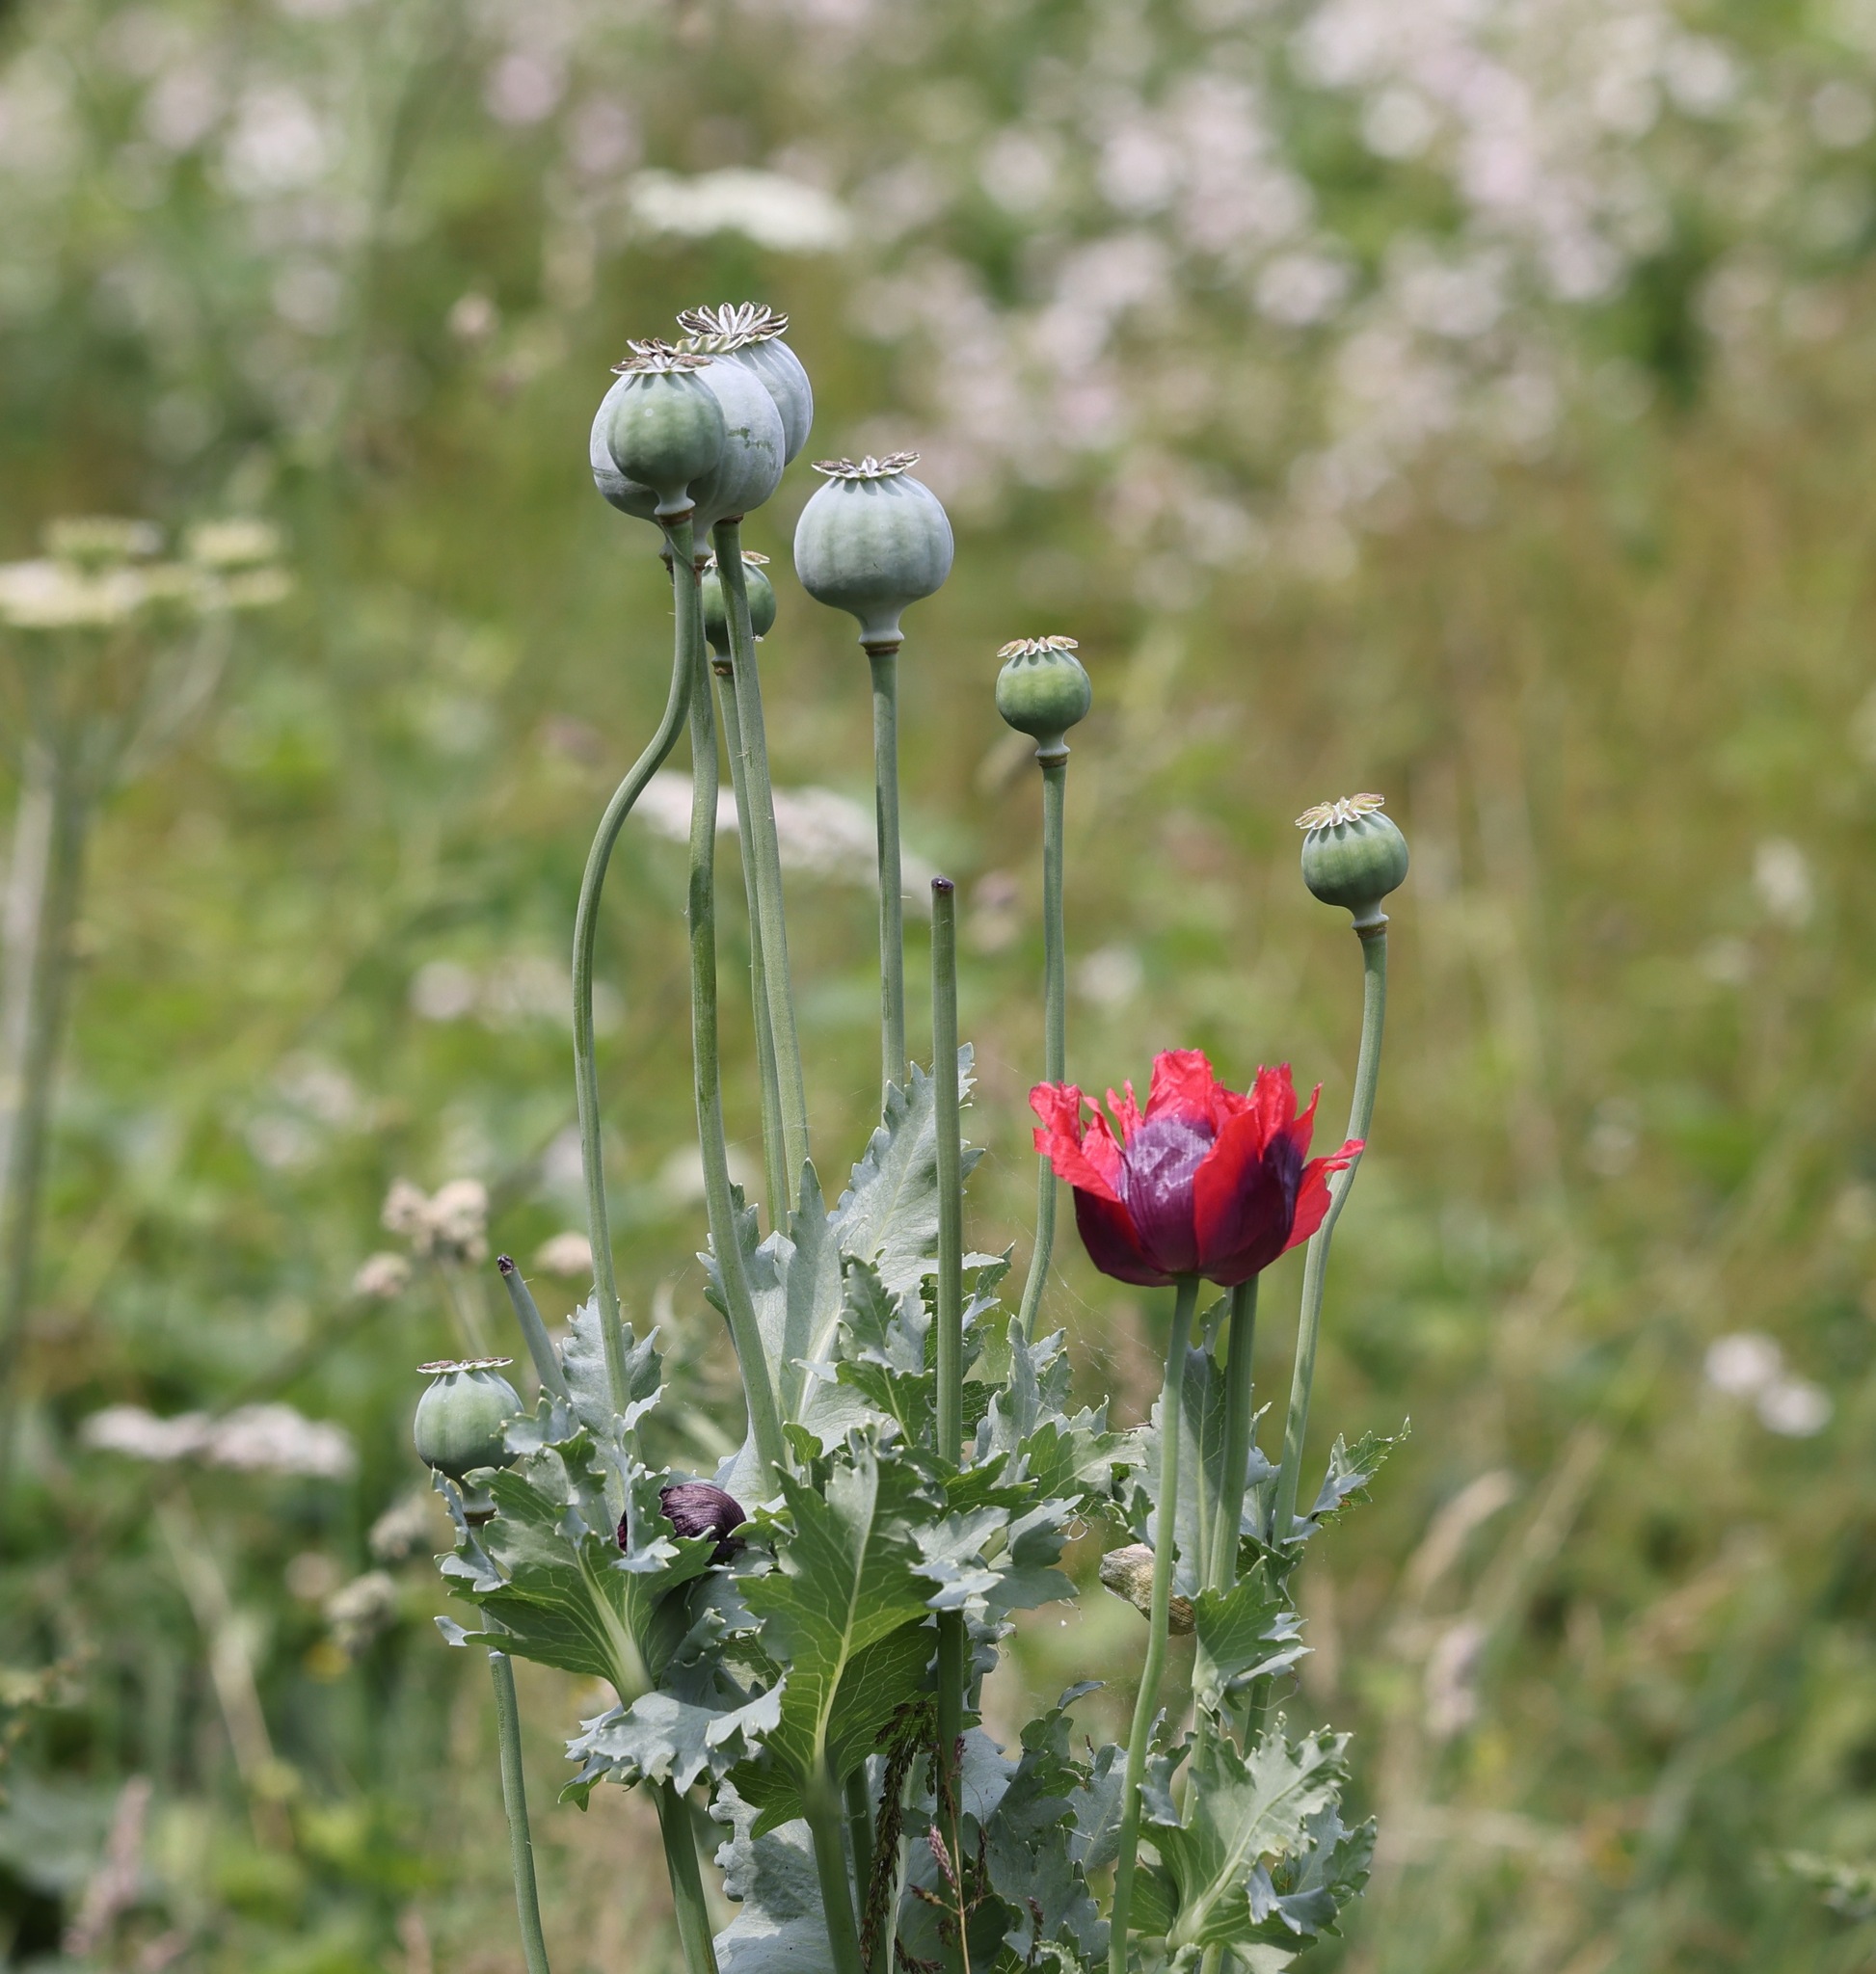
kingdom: Plantae
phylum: Tracheophyta
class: Magnoliopsida
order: Ranunculales
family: Papaveraceae
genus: Papaver
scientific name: Papaver somniferum
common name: Opium poppy
